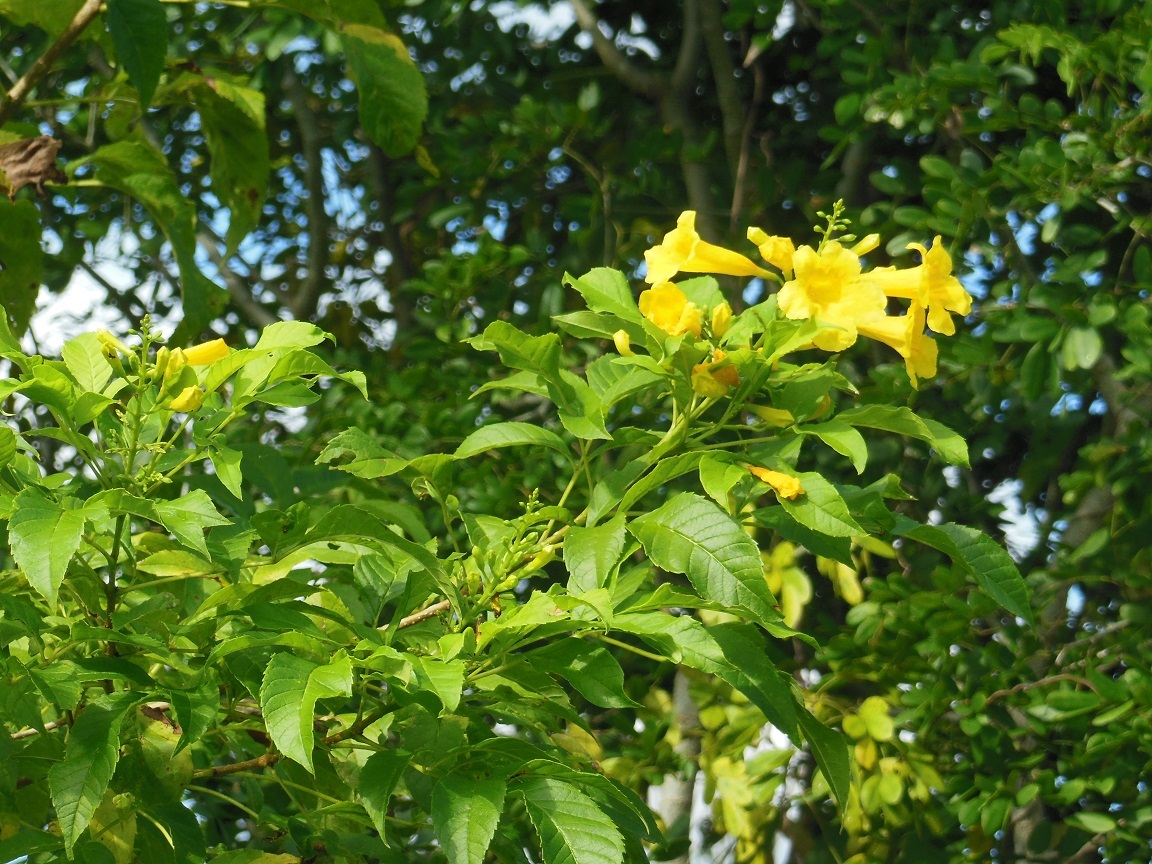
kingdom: Plantae
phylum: Tracheophyta
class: Magnoliopsida
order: Lamiales
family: Bignoniaceae
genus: Tecoma
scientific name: Tecoma stans
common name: Yellow trumpetbush
